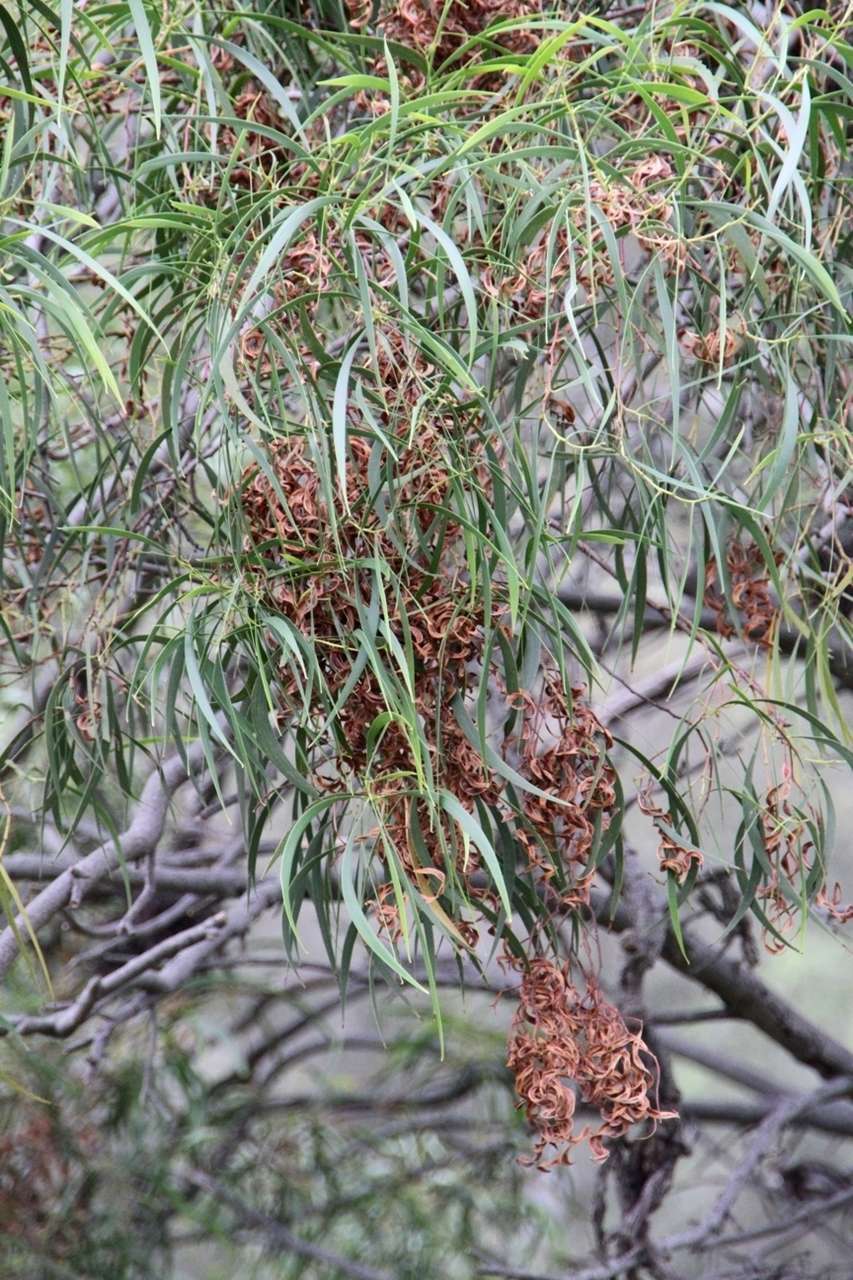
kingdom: Plantae
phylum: Tracheophyta
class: Magnoliopsida
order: Fabales
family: Fabaceae
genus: Acacia
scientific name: Acacia implexa
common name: Black wattle
